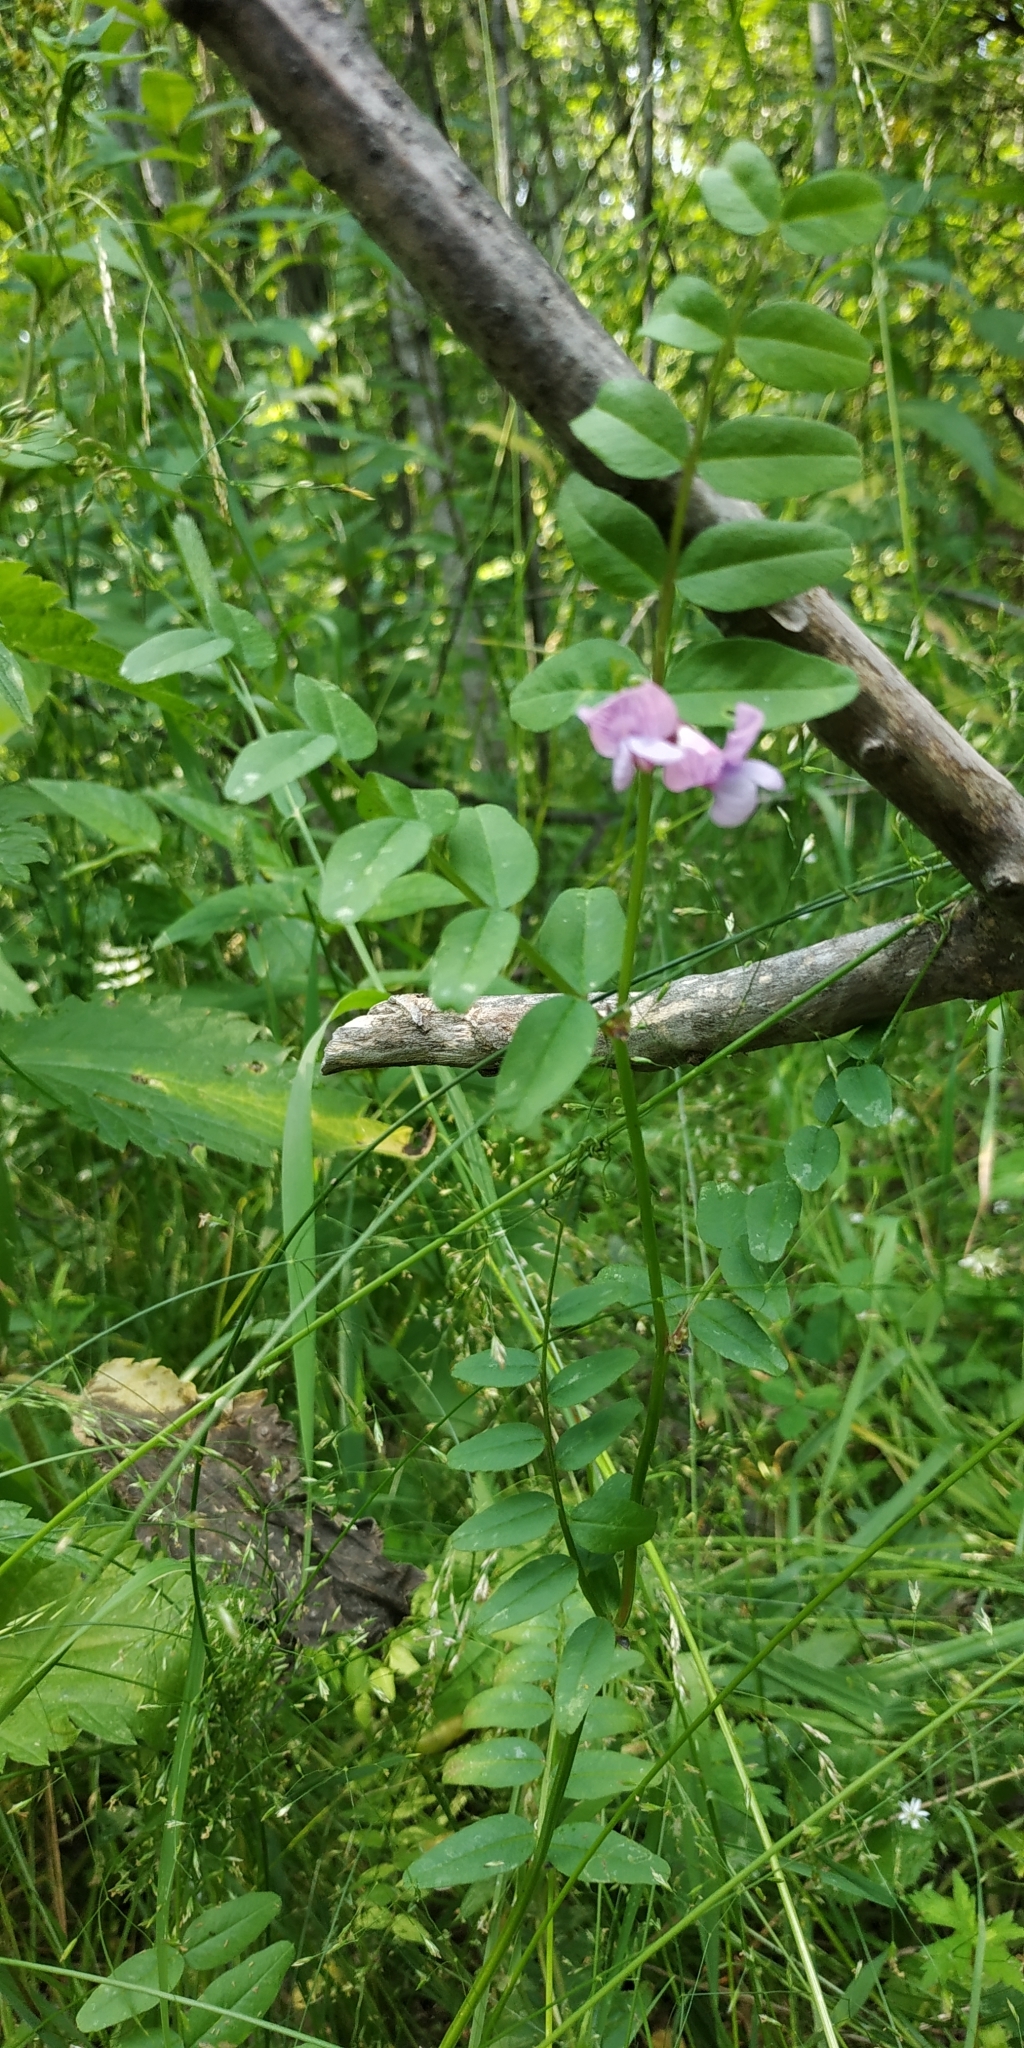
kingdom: Plantae
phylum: Tracheophyta
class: Magnoliopsida
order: Fabales
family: Fabaceae
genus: Vicia
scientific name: Vicia sepium
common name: Bush vetch
